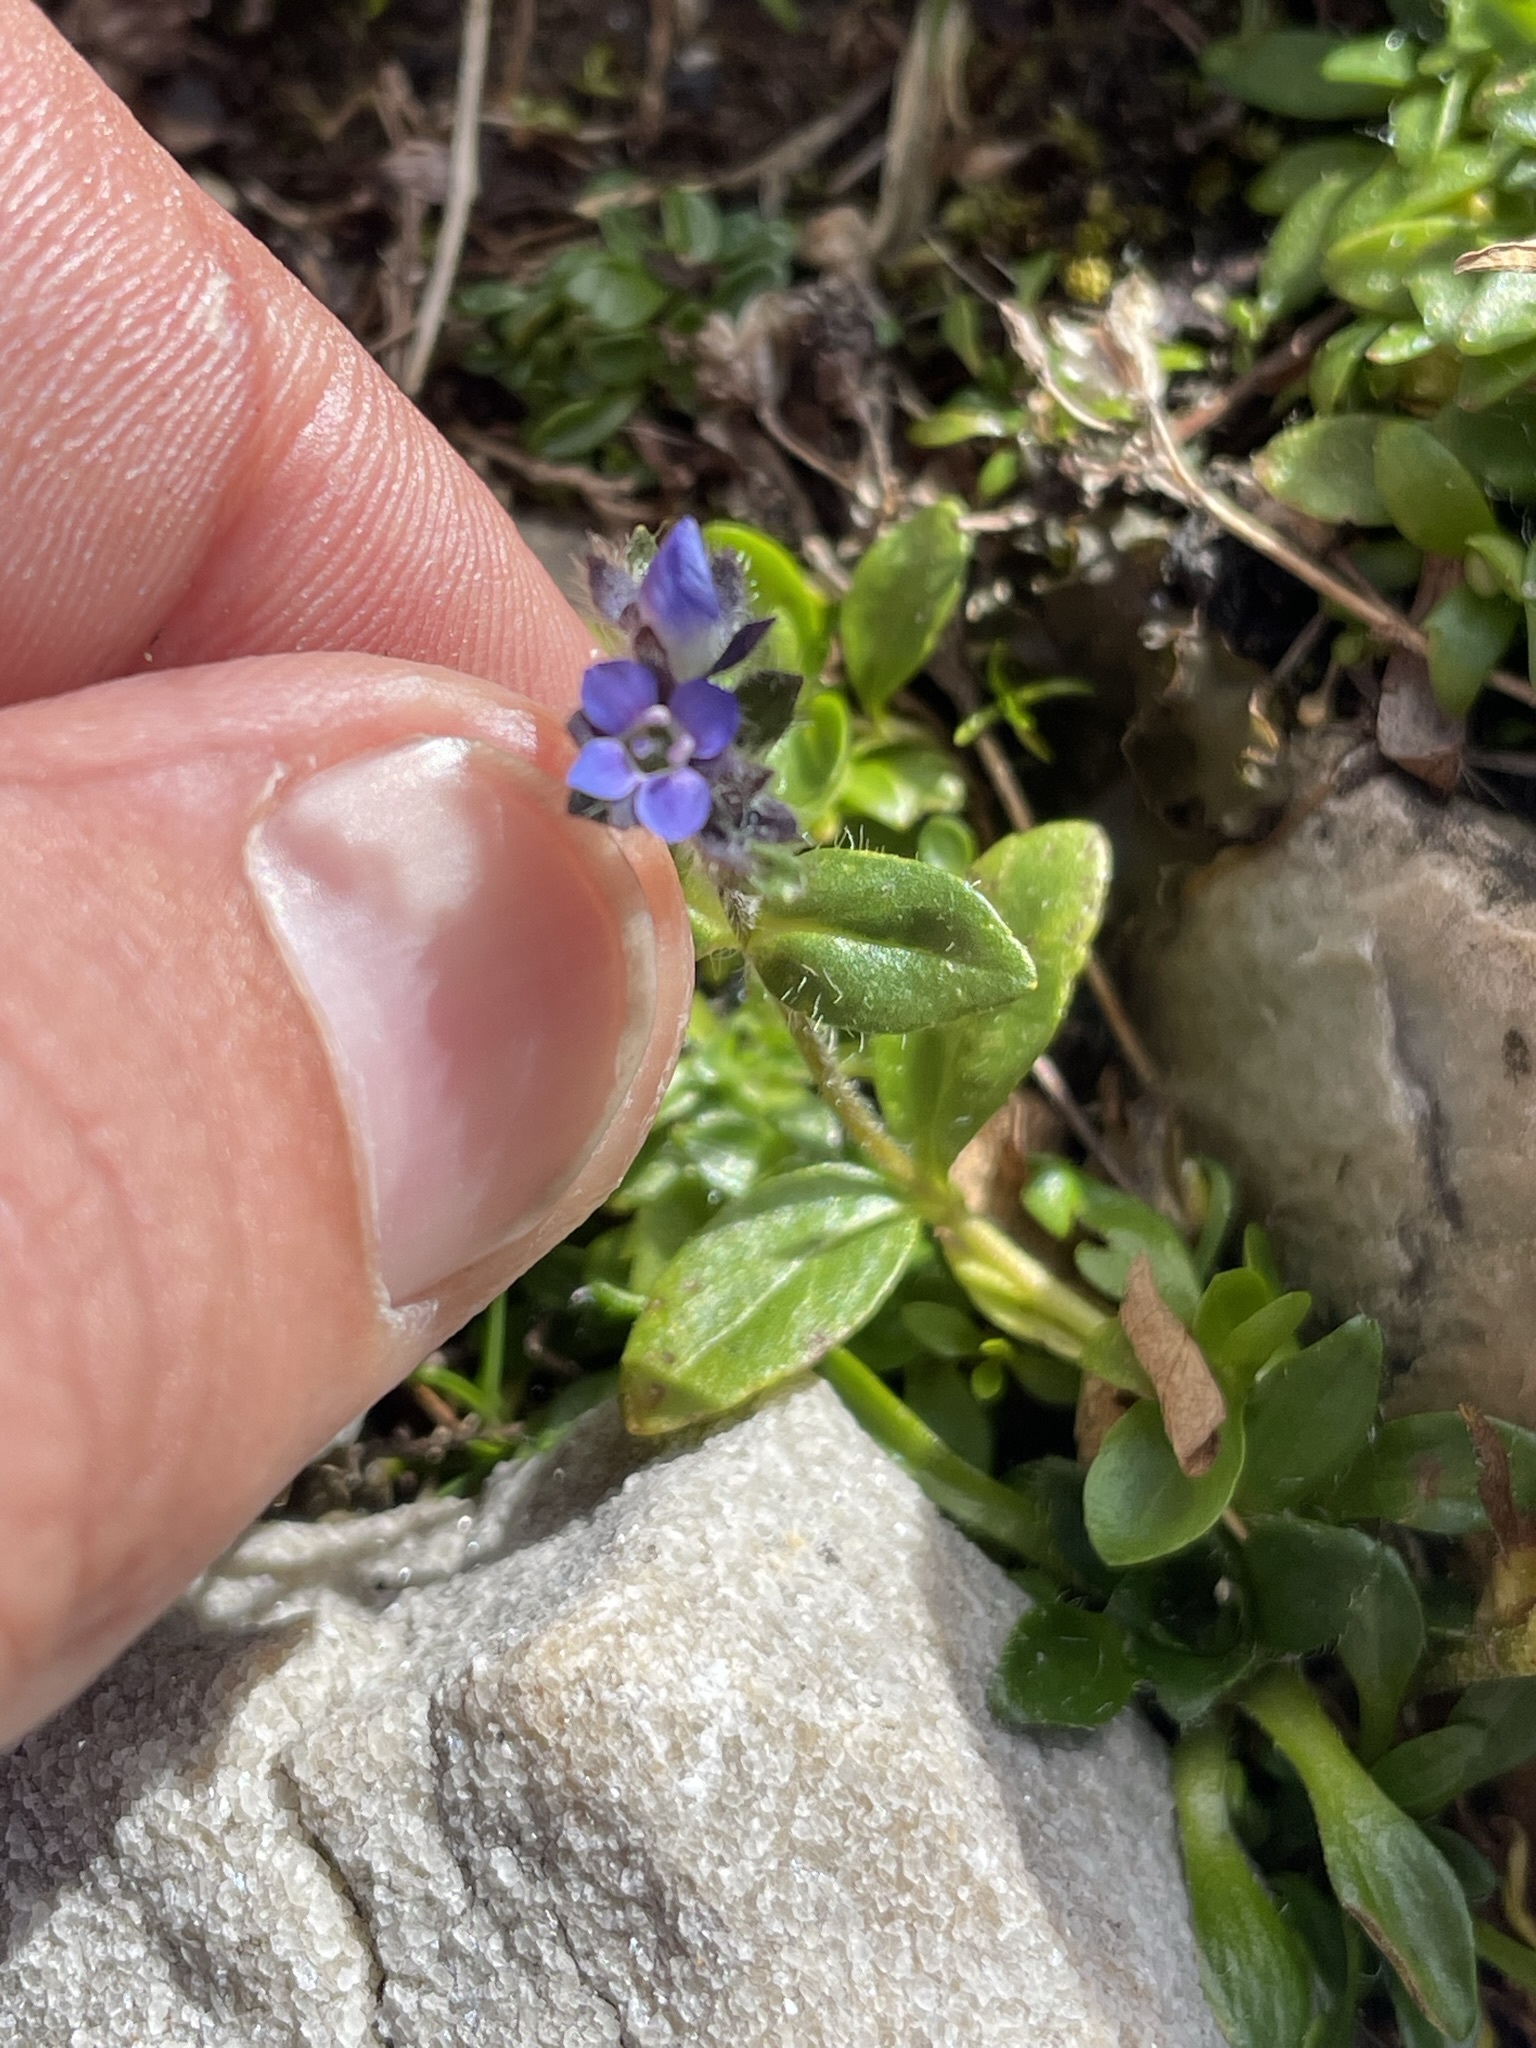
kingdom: Plantae
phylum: Tracheophyta
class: Magnoliopsida
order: Lamiales
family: Plantaginaceae
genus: Veronica
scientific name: Veronica alpina
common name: Alpine speedwell
